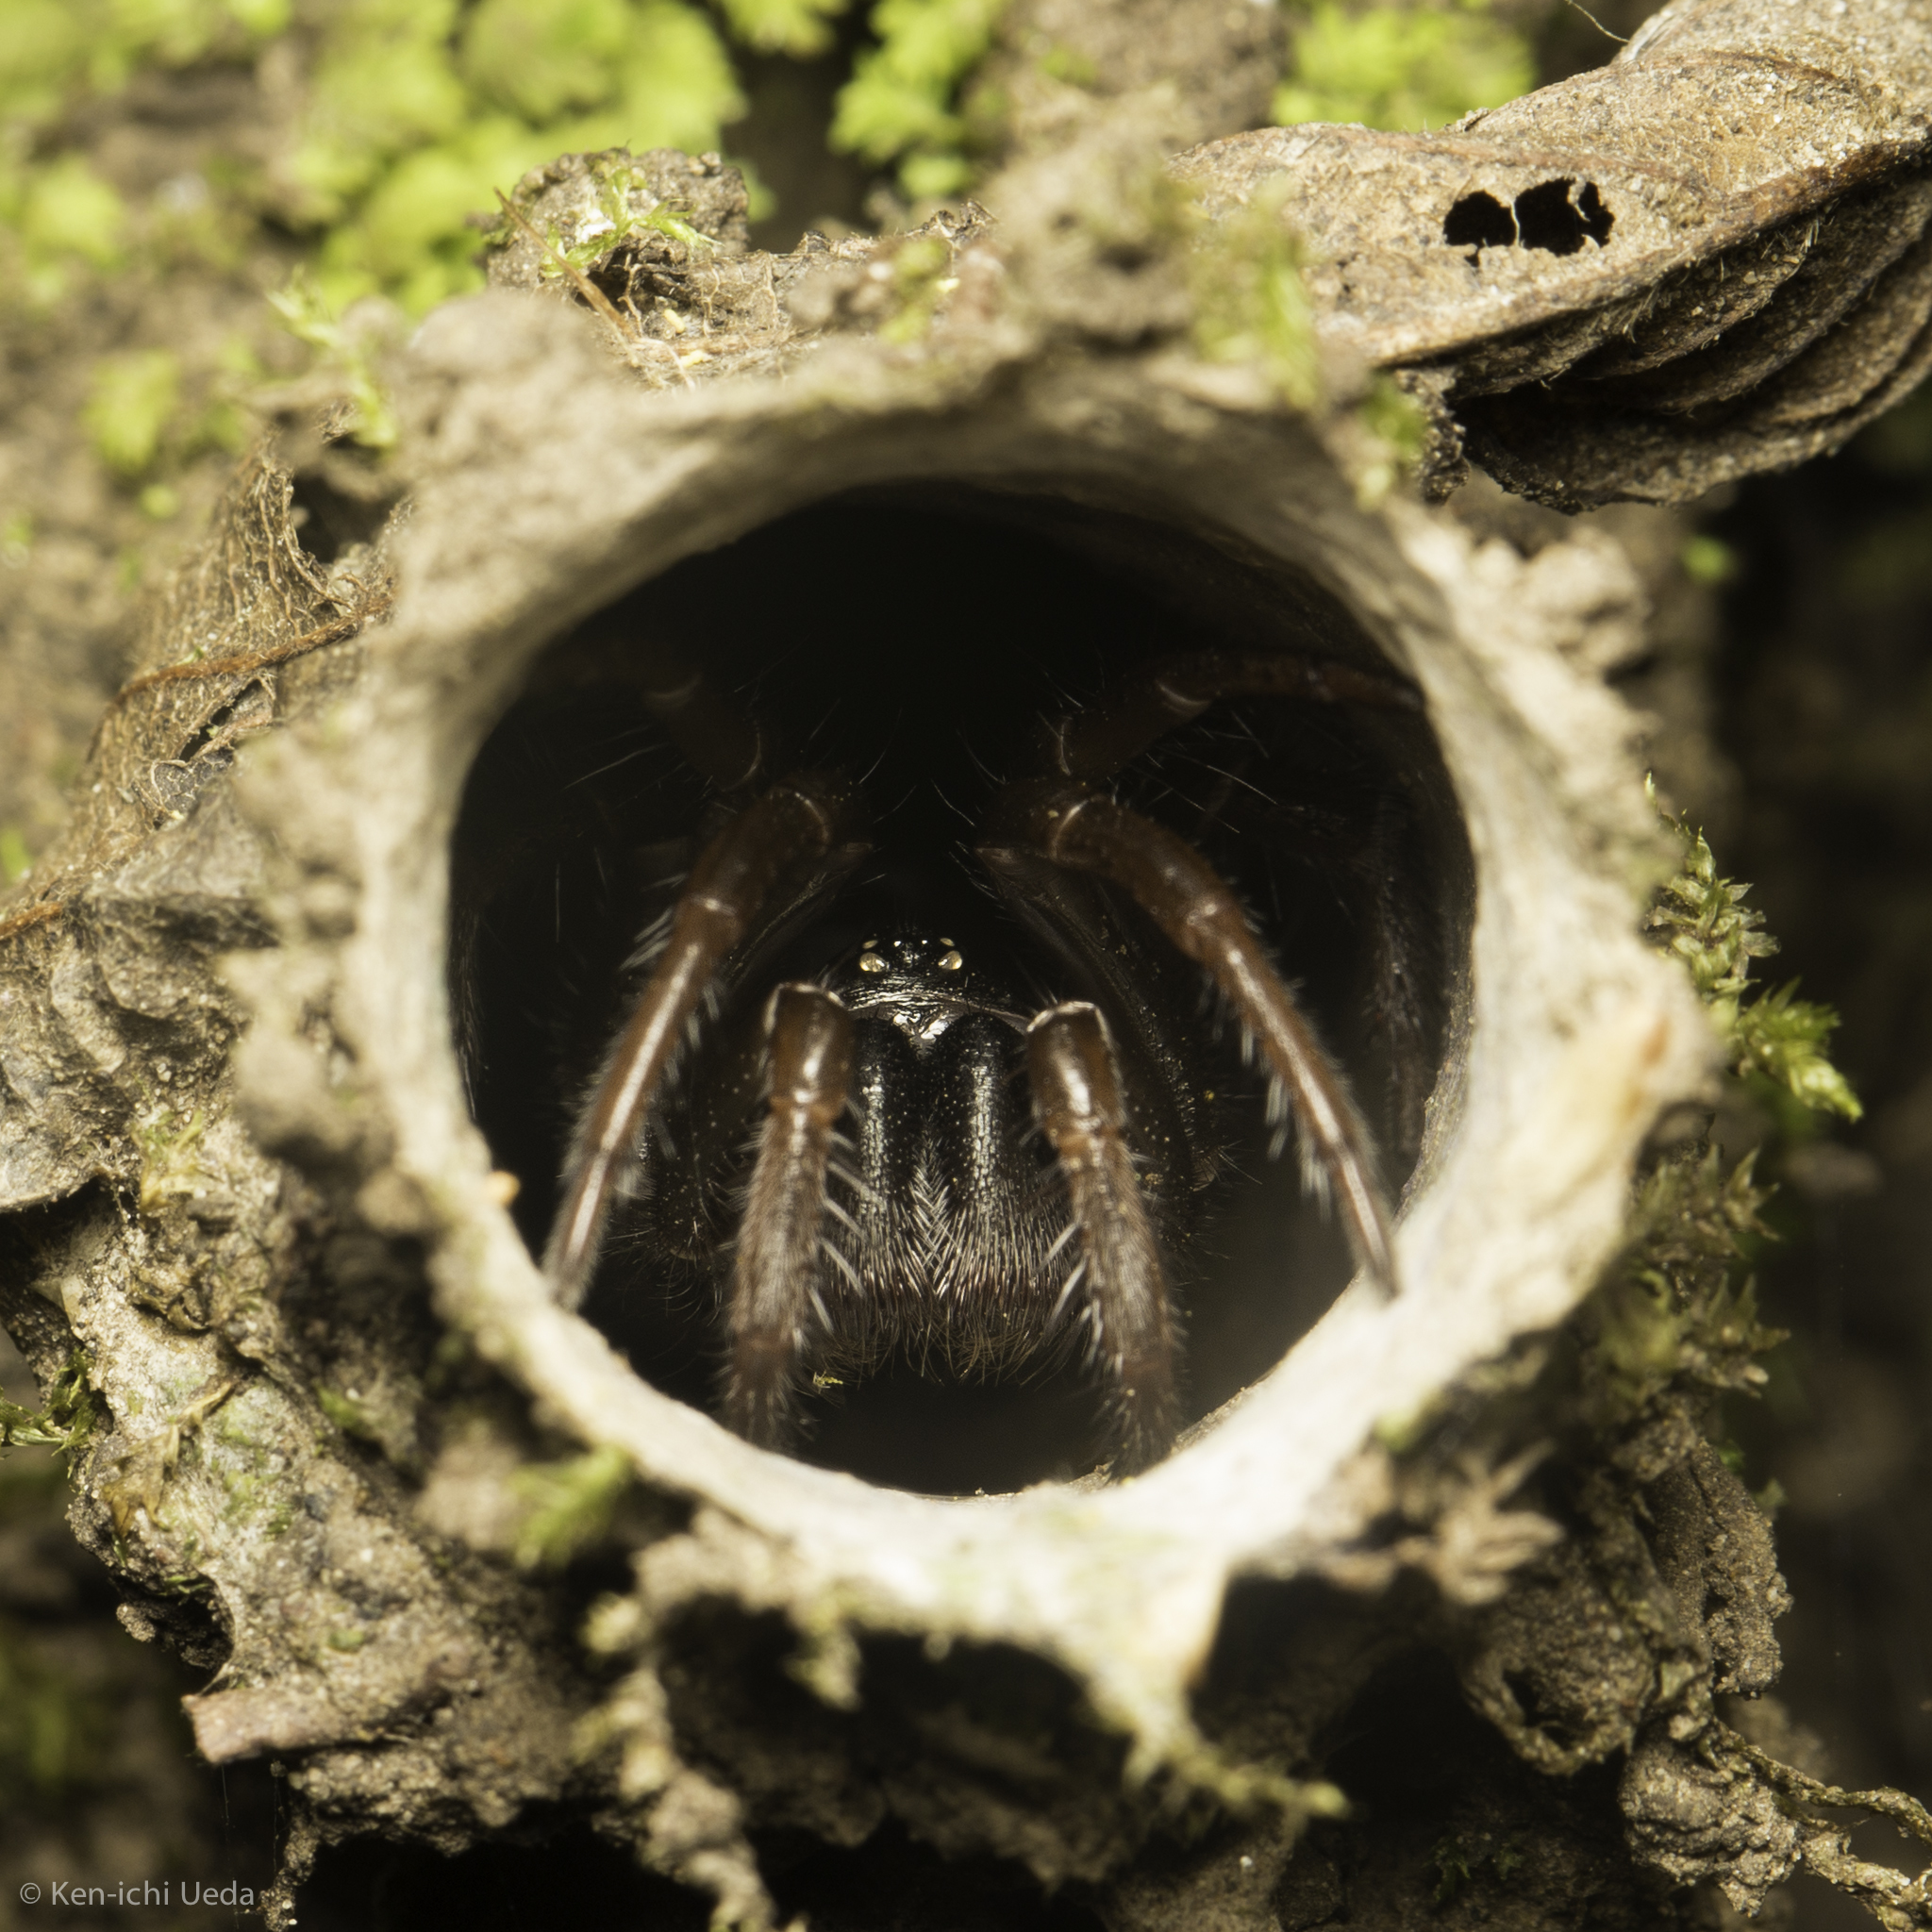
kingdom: Animalia
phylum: Arthropoda
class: Arachnida
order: Araneae
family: Antrodiaetidae
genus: Atypoides
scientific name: Atypoides riversi
